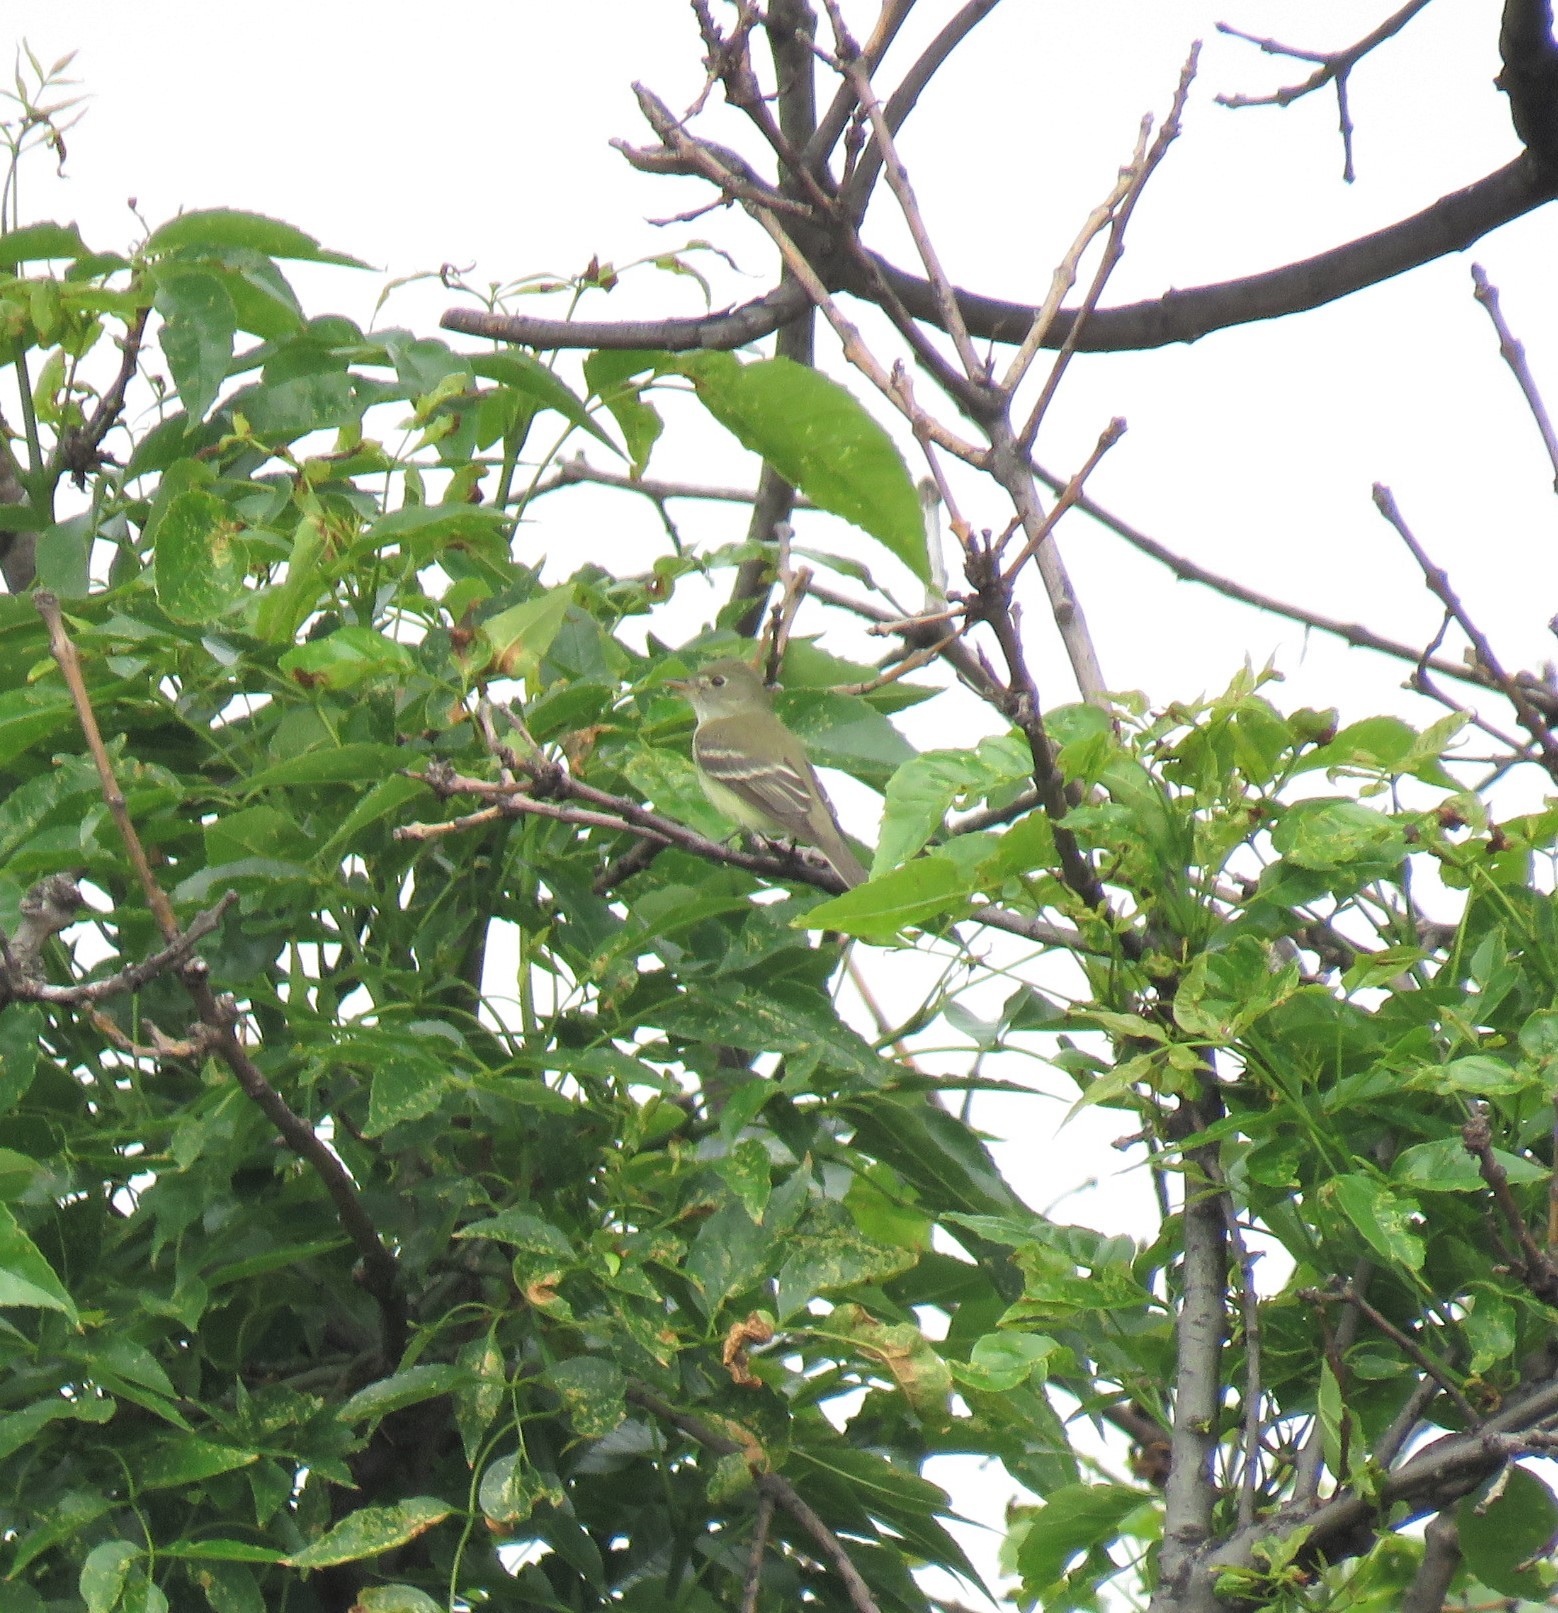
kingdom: Animalia
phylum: Chordata
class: Aves
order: Passeriformes
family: Tyrannidae
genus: Empidonax
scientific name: Empidonax alnorum
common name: Alder flycatcher
